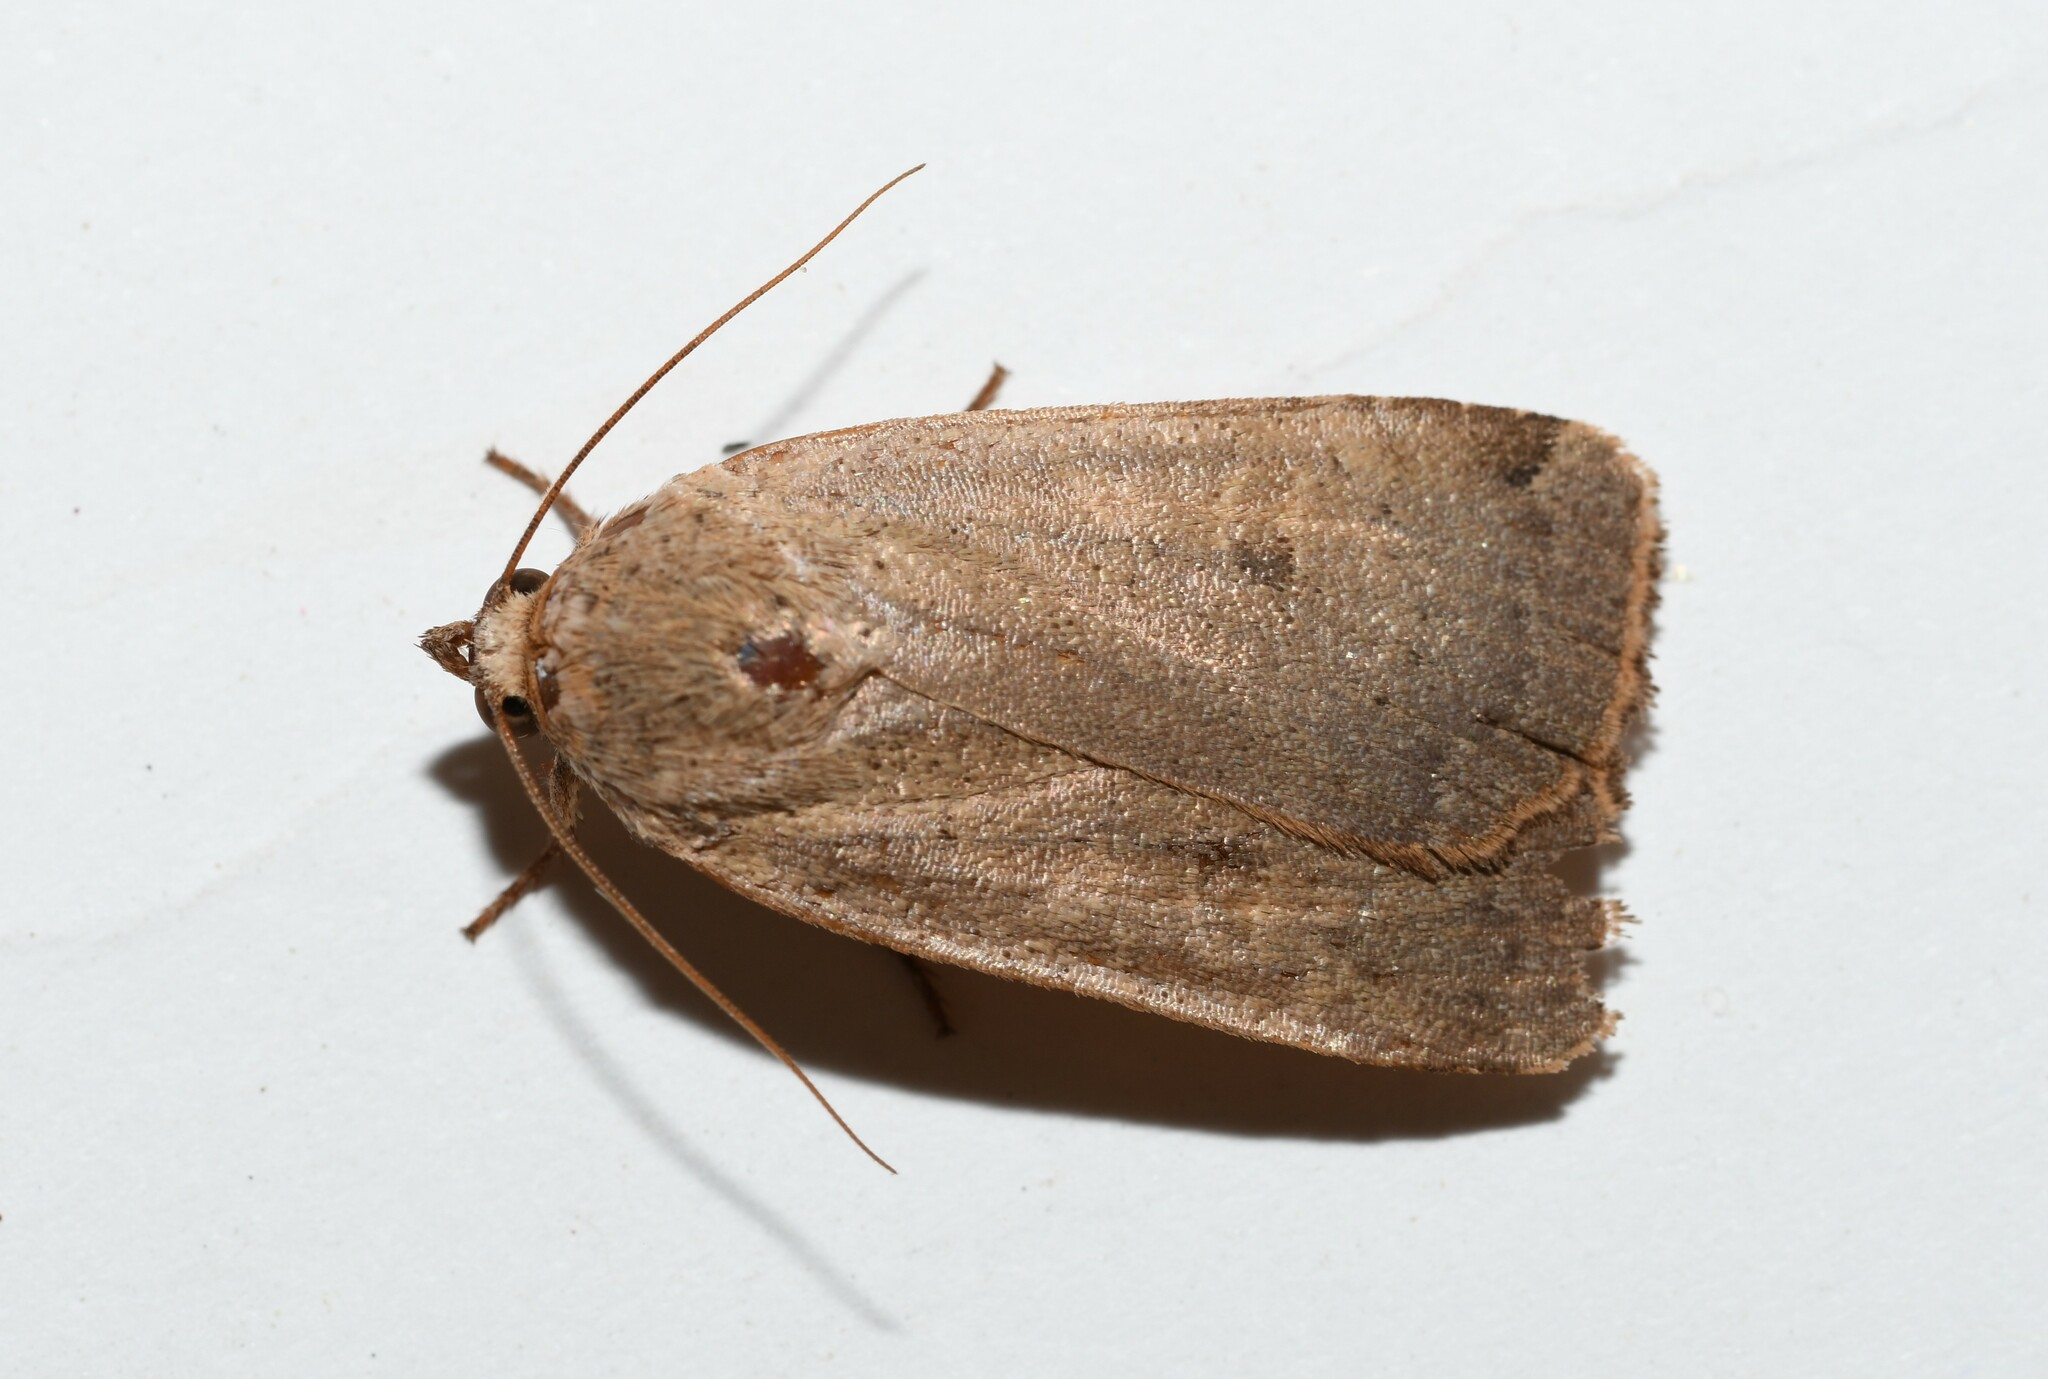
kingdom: Animalia
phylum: Arthropoda
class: Insecta
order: Lepidoptera
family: Noctuidae
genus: Noctua
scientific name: Noctua comes
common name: Lesser yellow underwing
